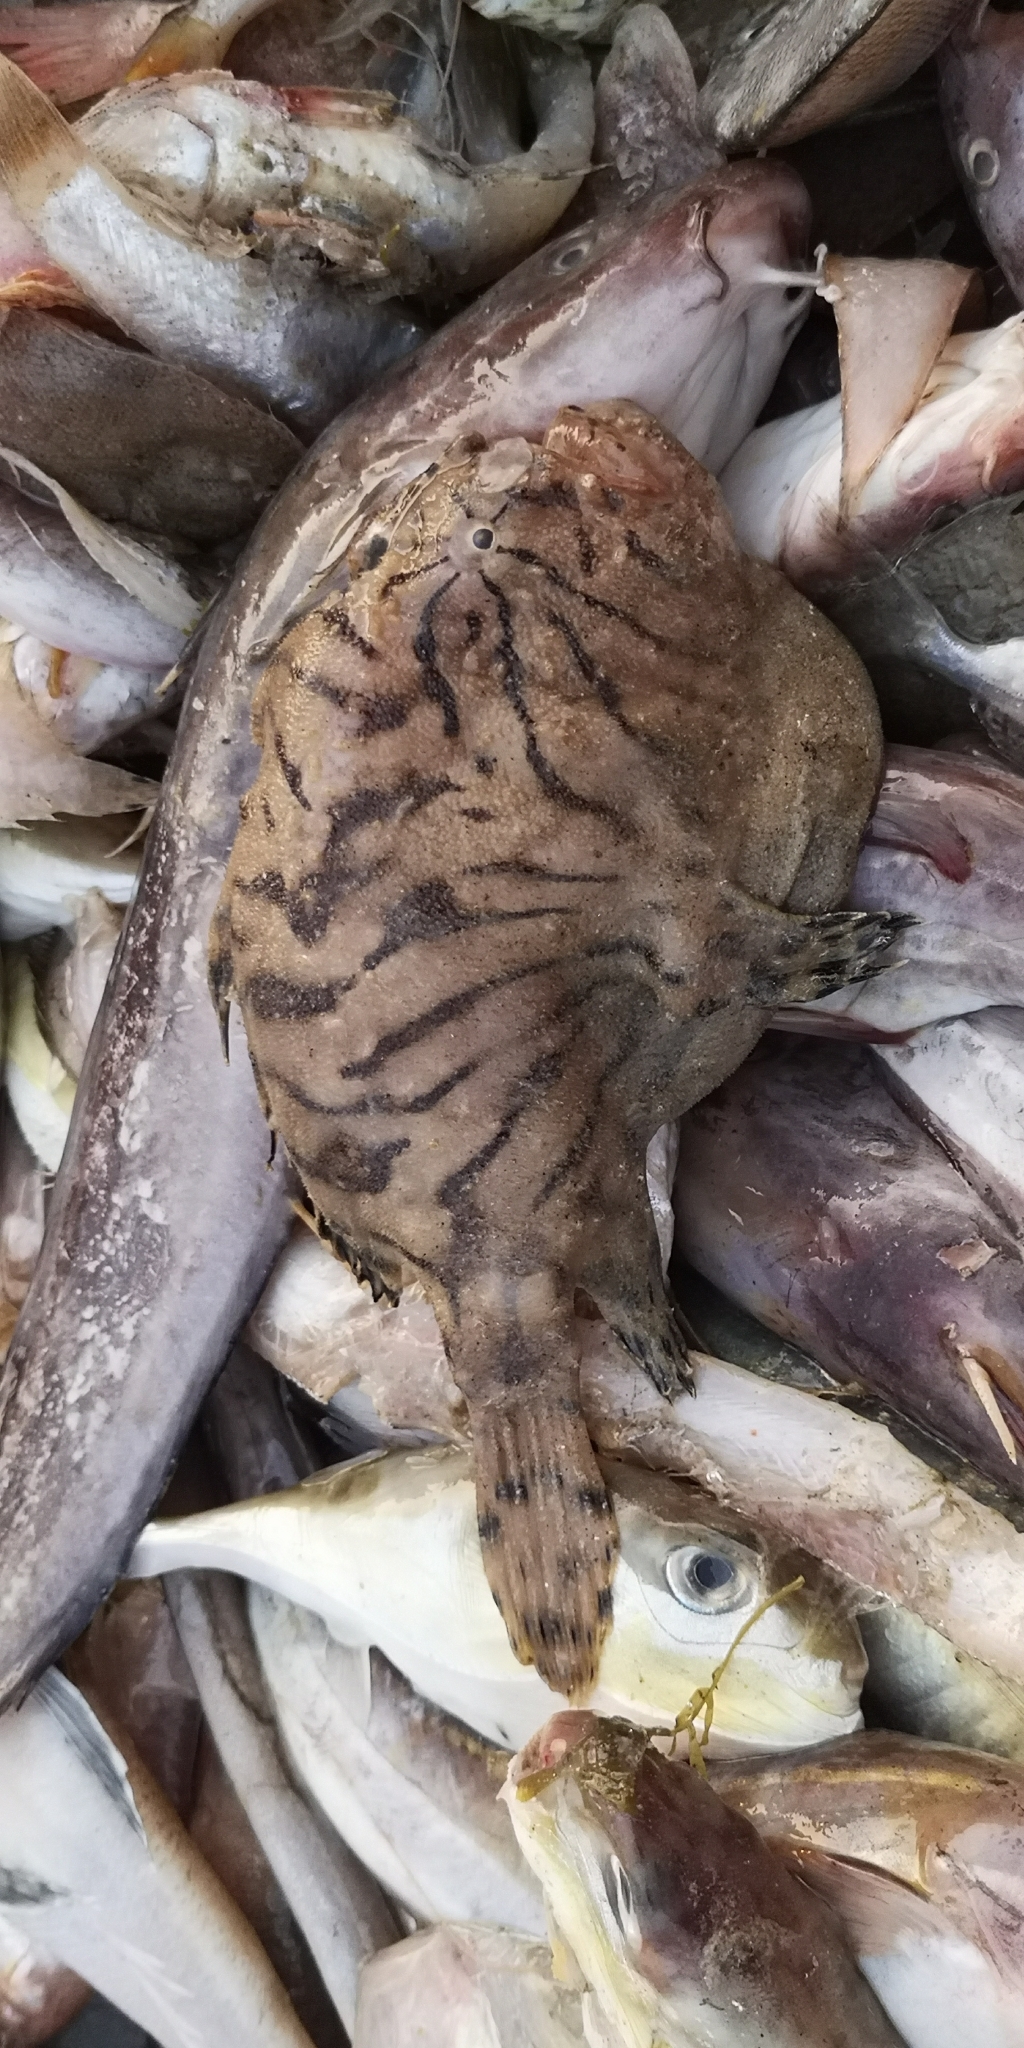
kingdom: Animalia
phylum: Chordata
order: Lophiiformes
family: Antennariidae
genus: Antennarius
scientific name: Antennarius striatus
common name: Striated frogfish
